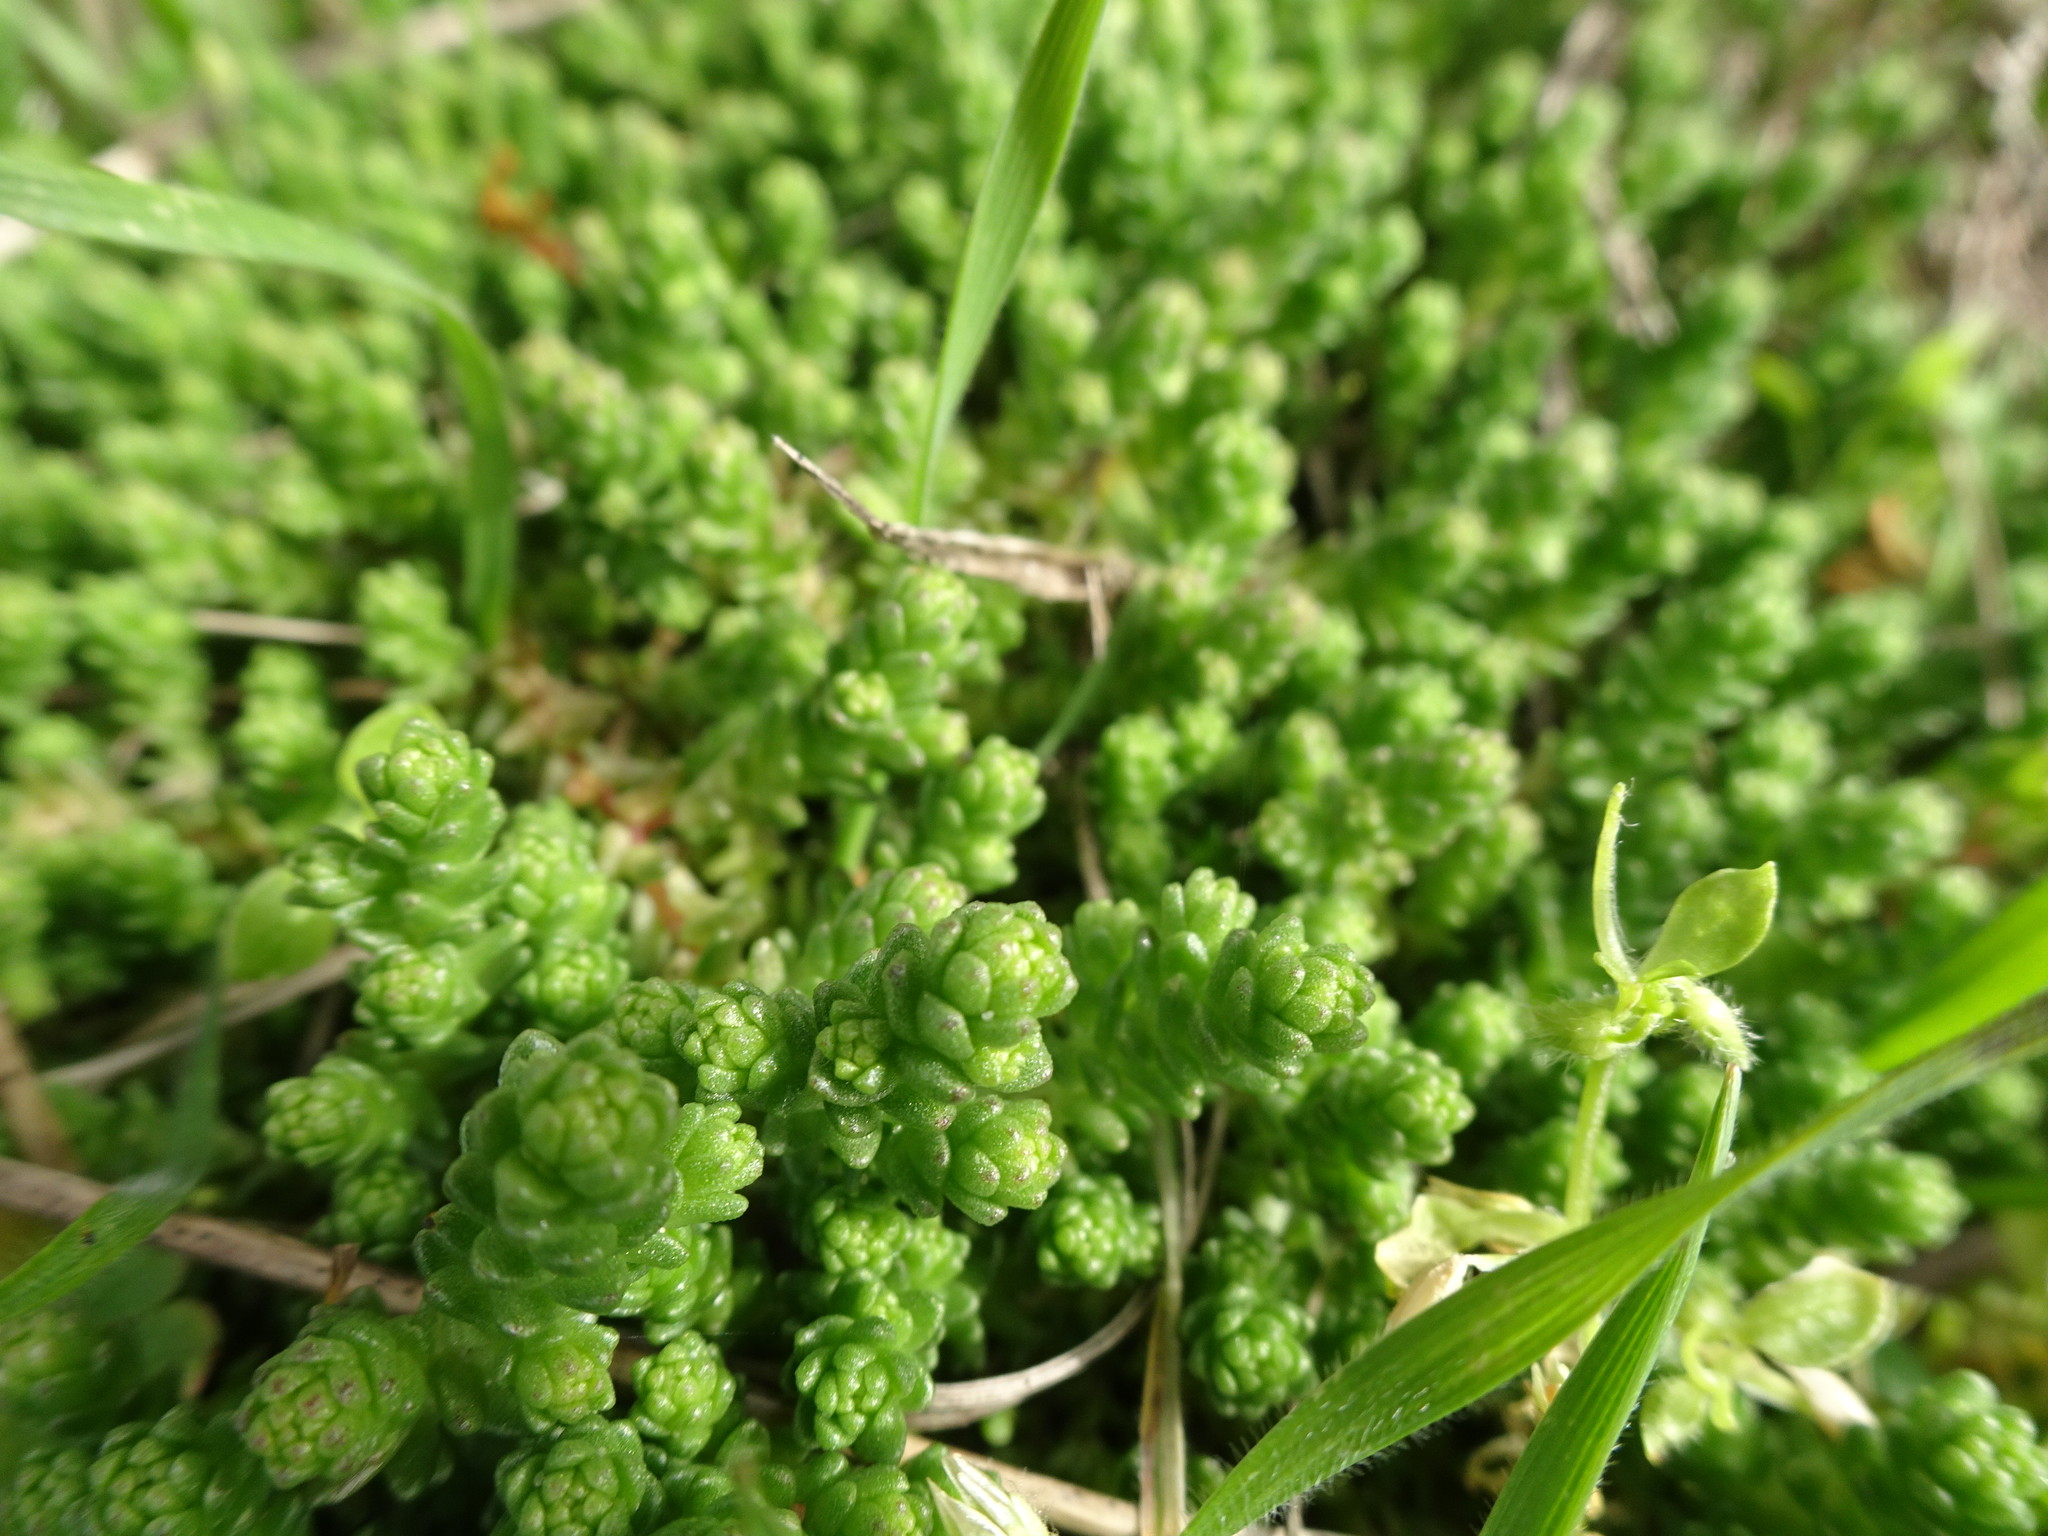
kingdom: Plantae
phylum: Tracheophyta
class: Magnoliopsida
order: Saxifragales
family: Crassulaceae
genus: Sedum
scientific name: Sedum acre
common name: Biting stonecrop
